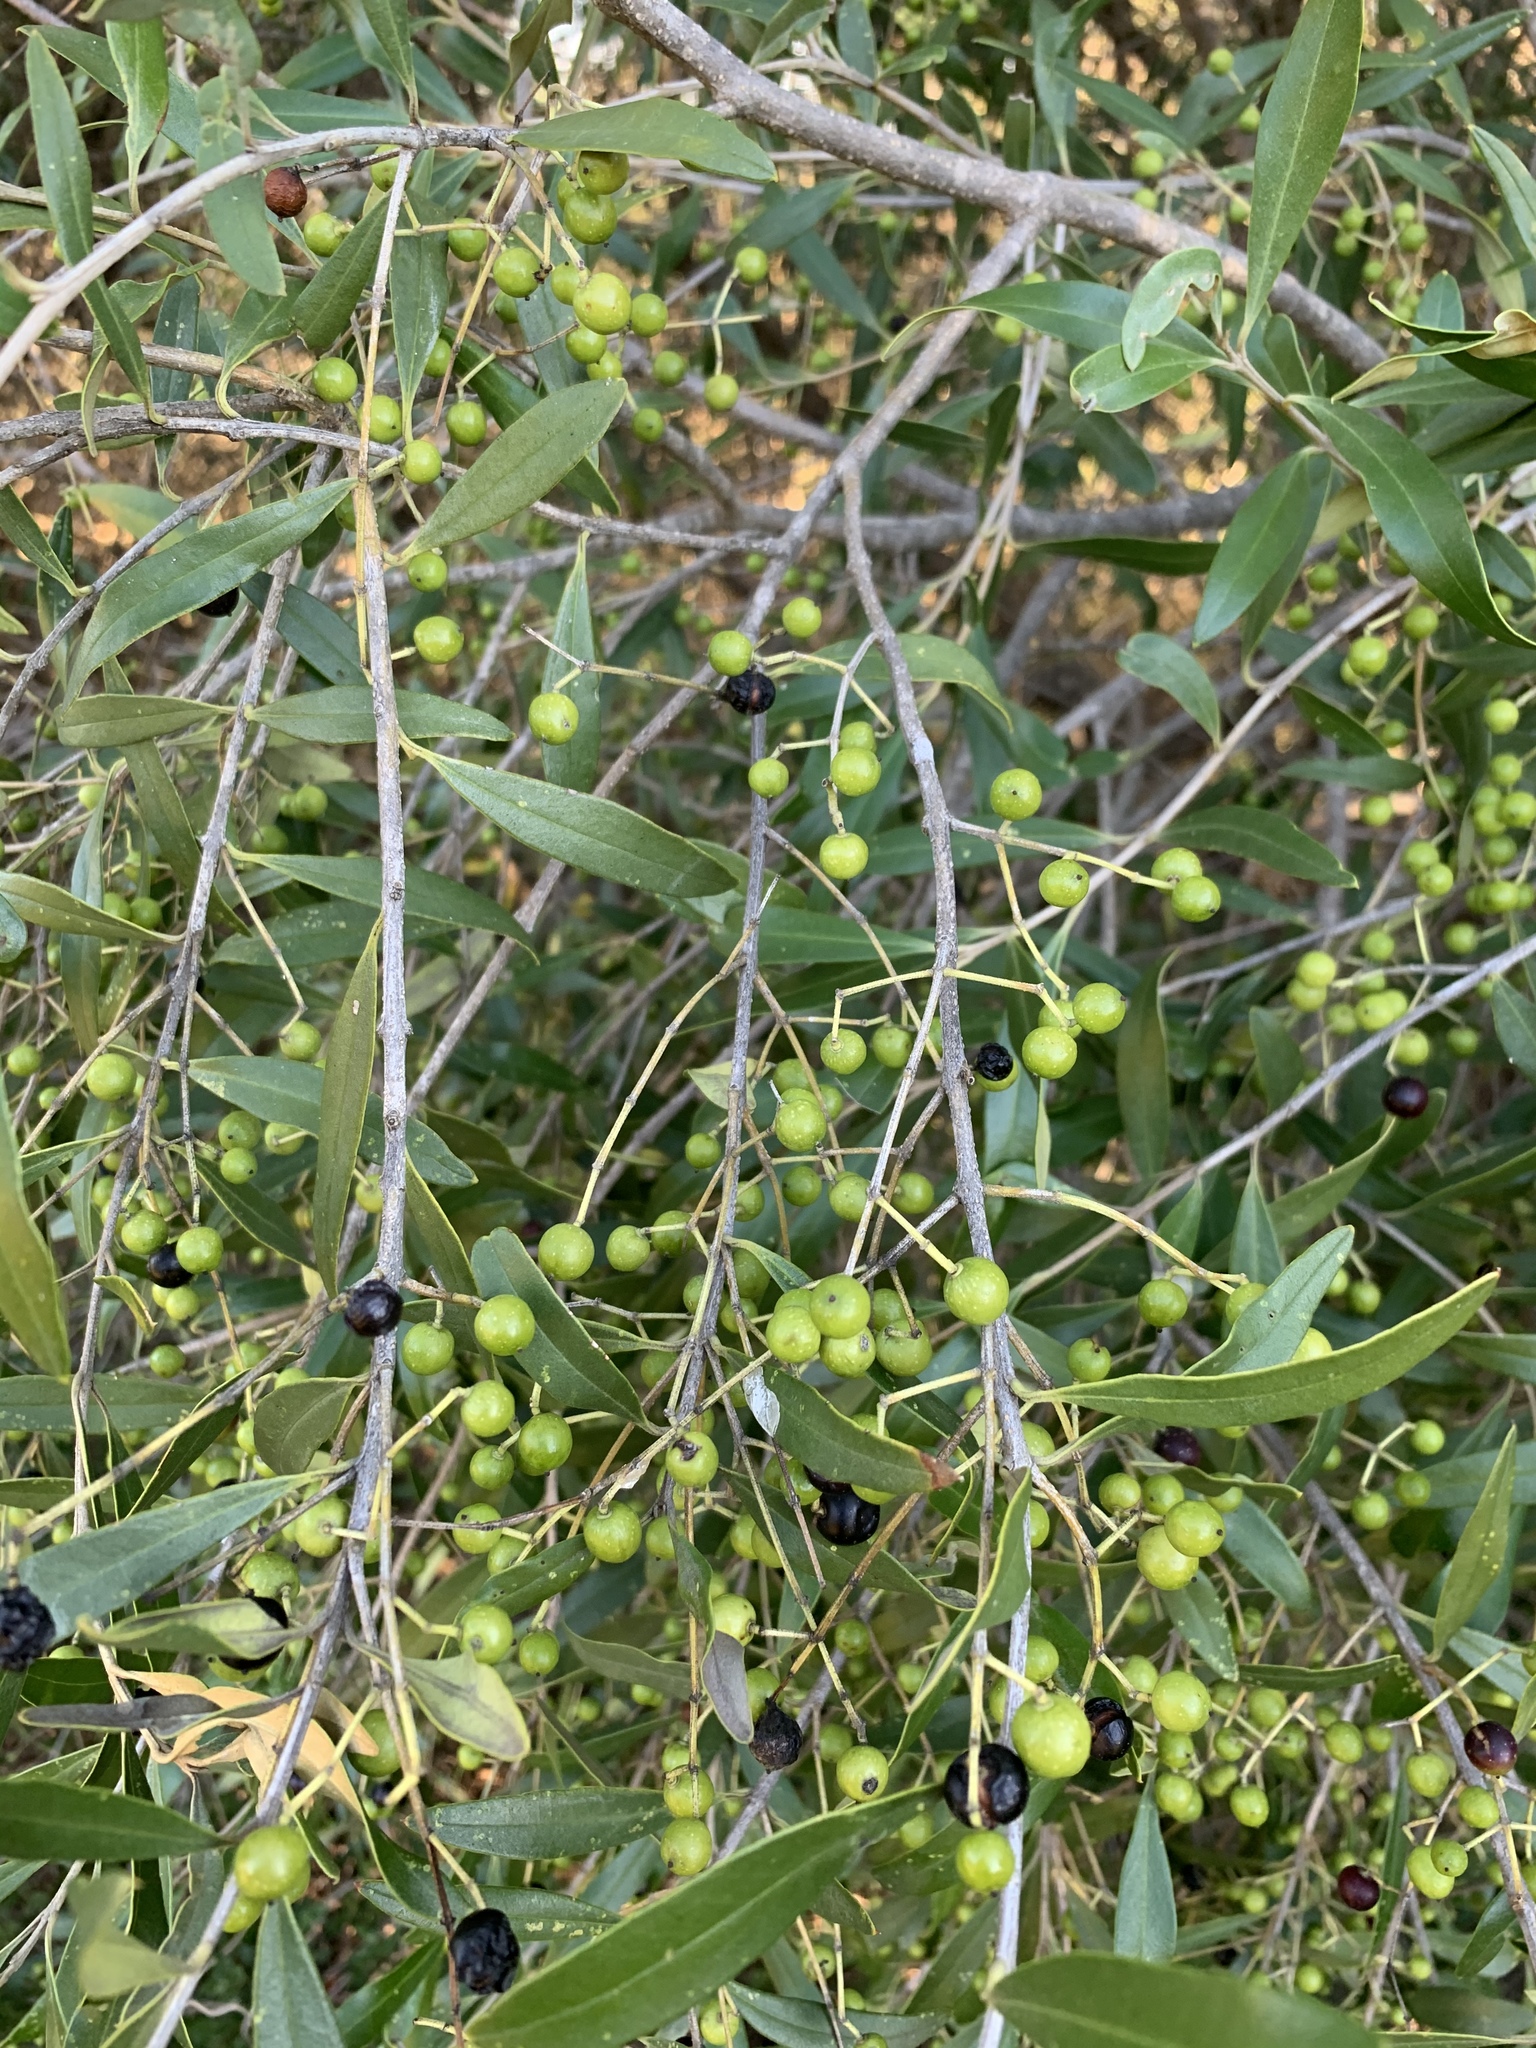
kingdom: Plantae
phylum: Tracheophyta
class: Magnoliopsida
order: Lamiales
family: Oleaceae
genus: Olea
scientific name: Olea europaea
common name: Olive
